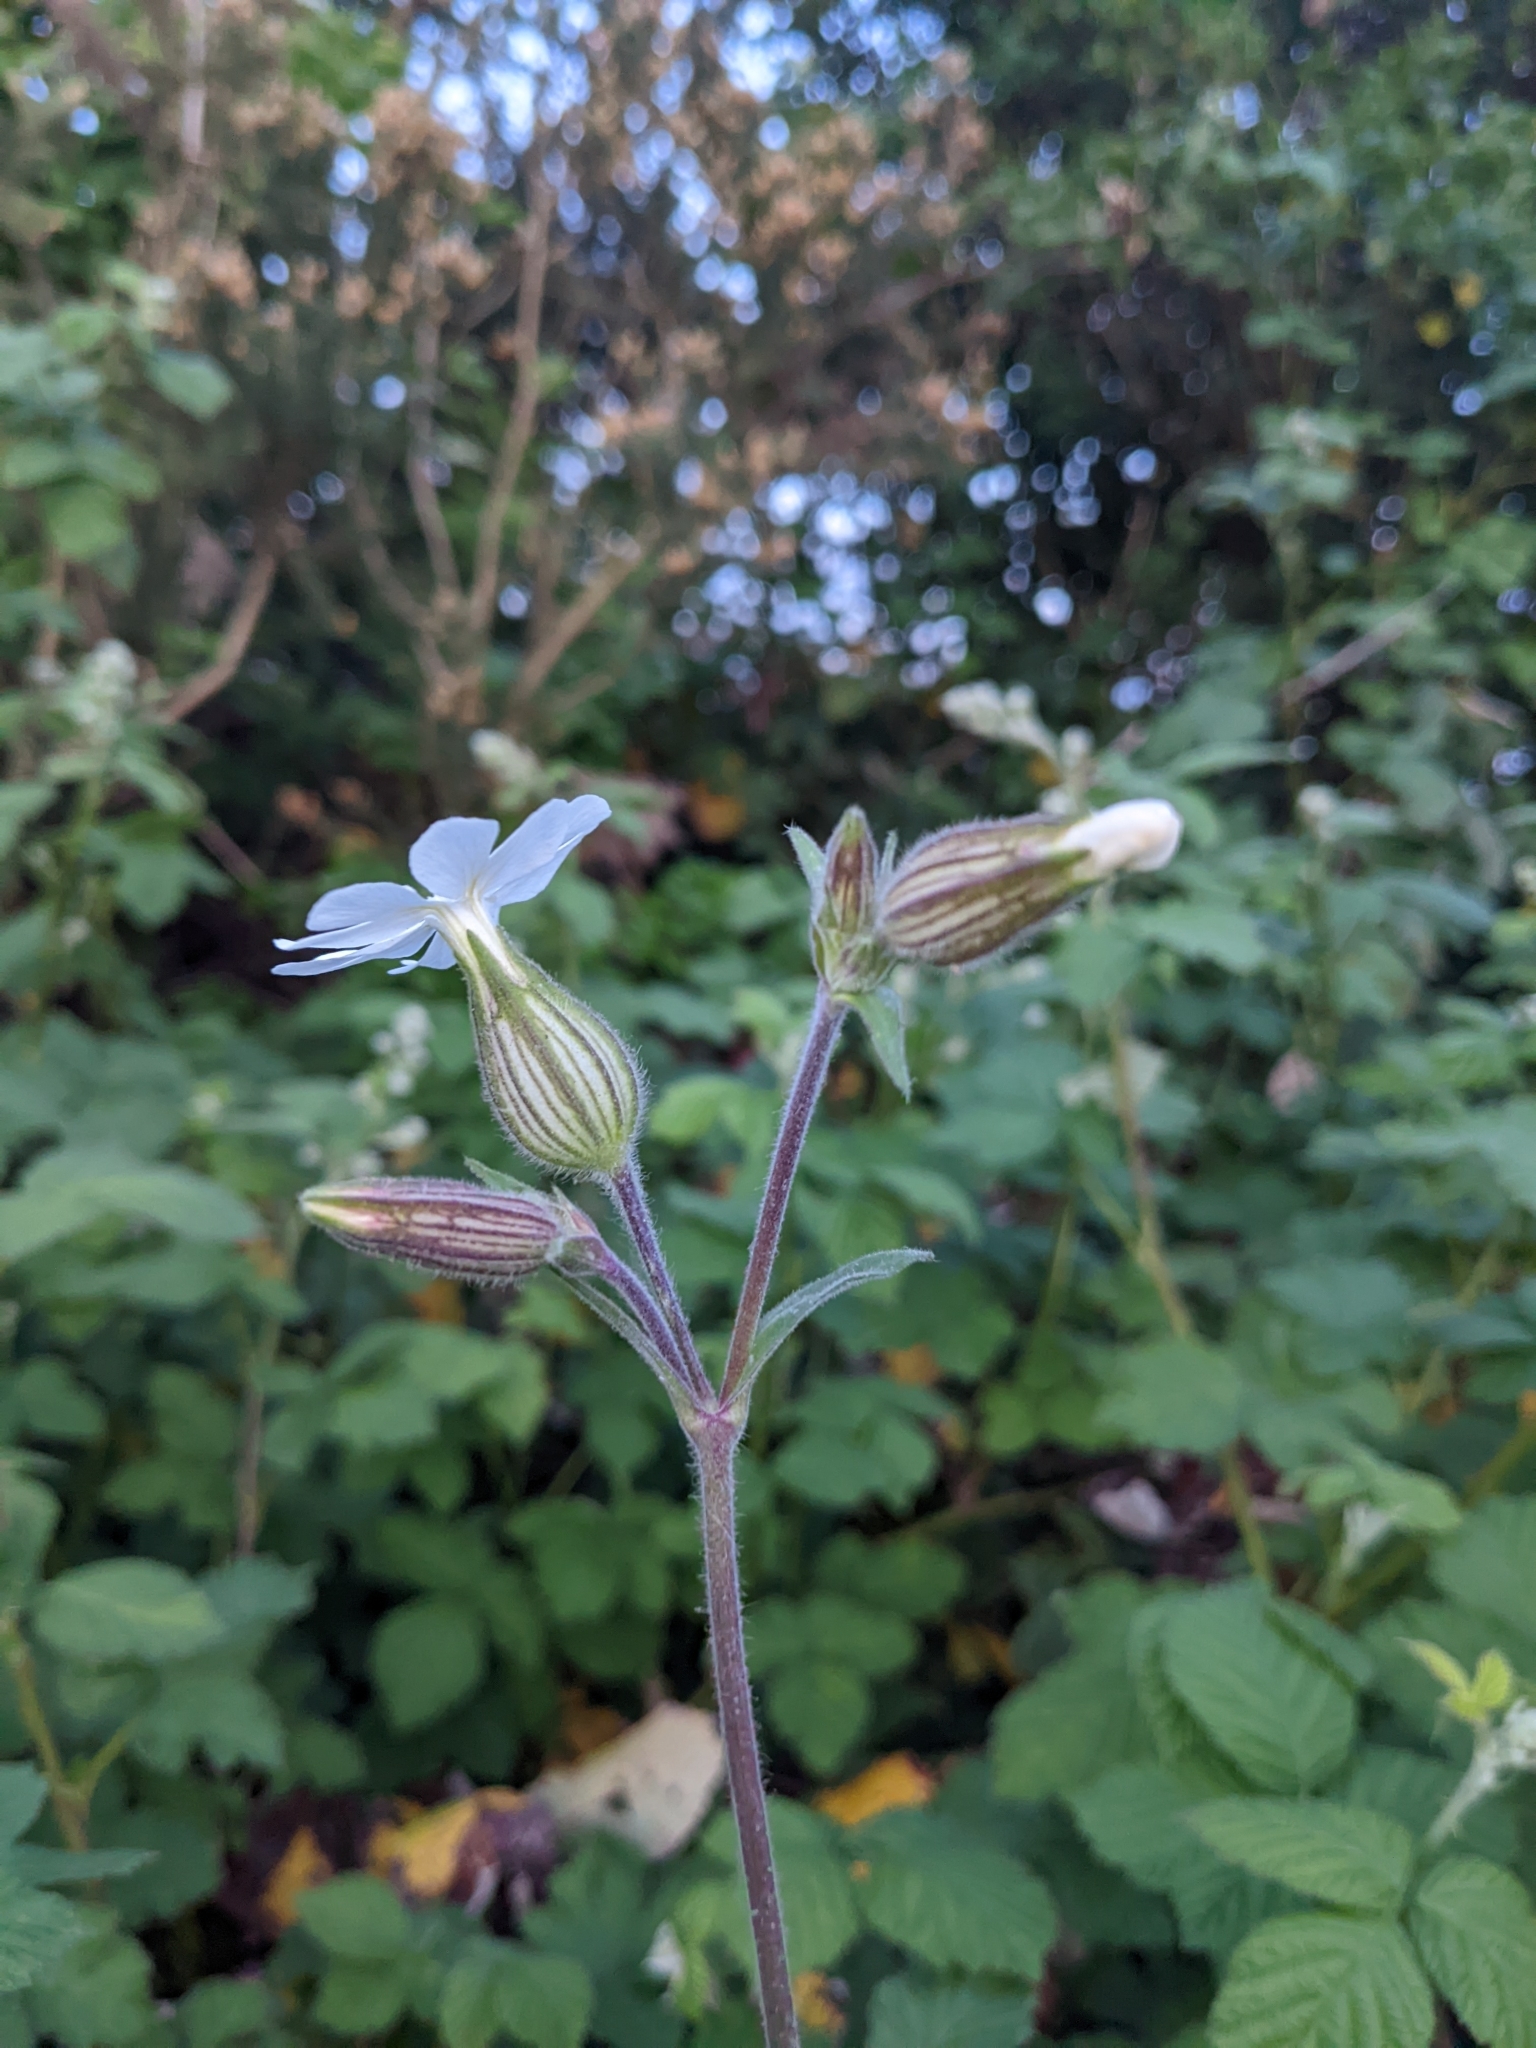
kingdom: Plantae
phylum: Tracheophyta
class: Magnoliopsida
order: Caryophyllales
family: Caryophyllaceae
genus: Silene
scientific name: Silene latifolia
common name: White campion
